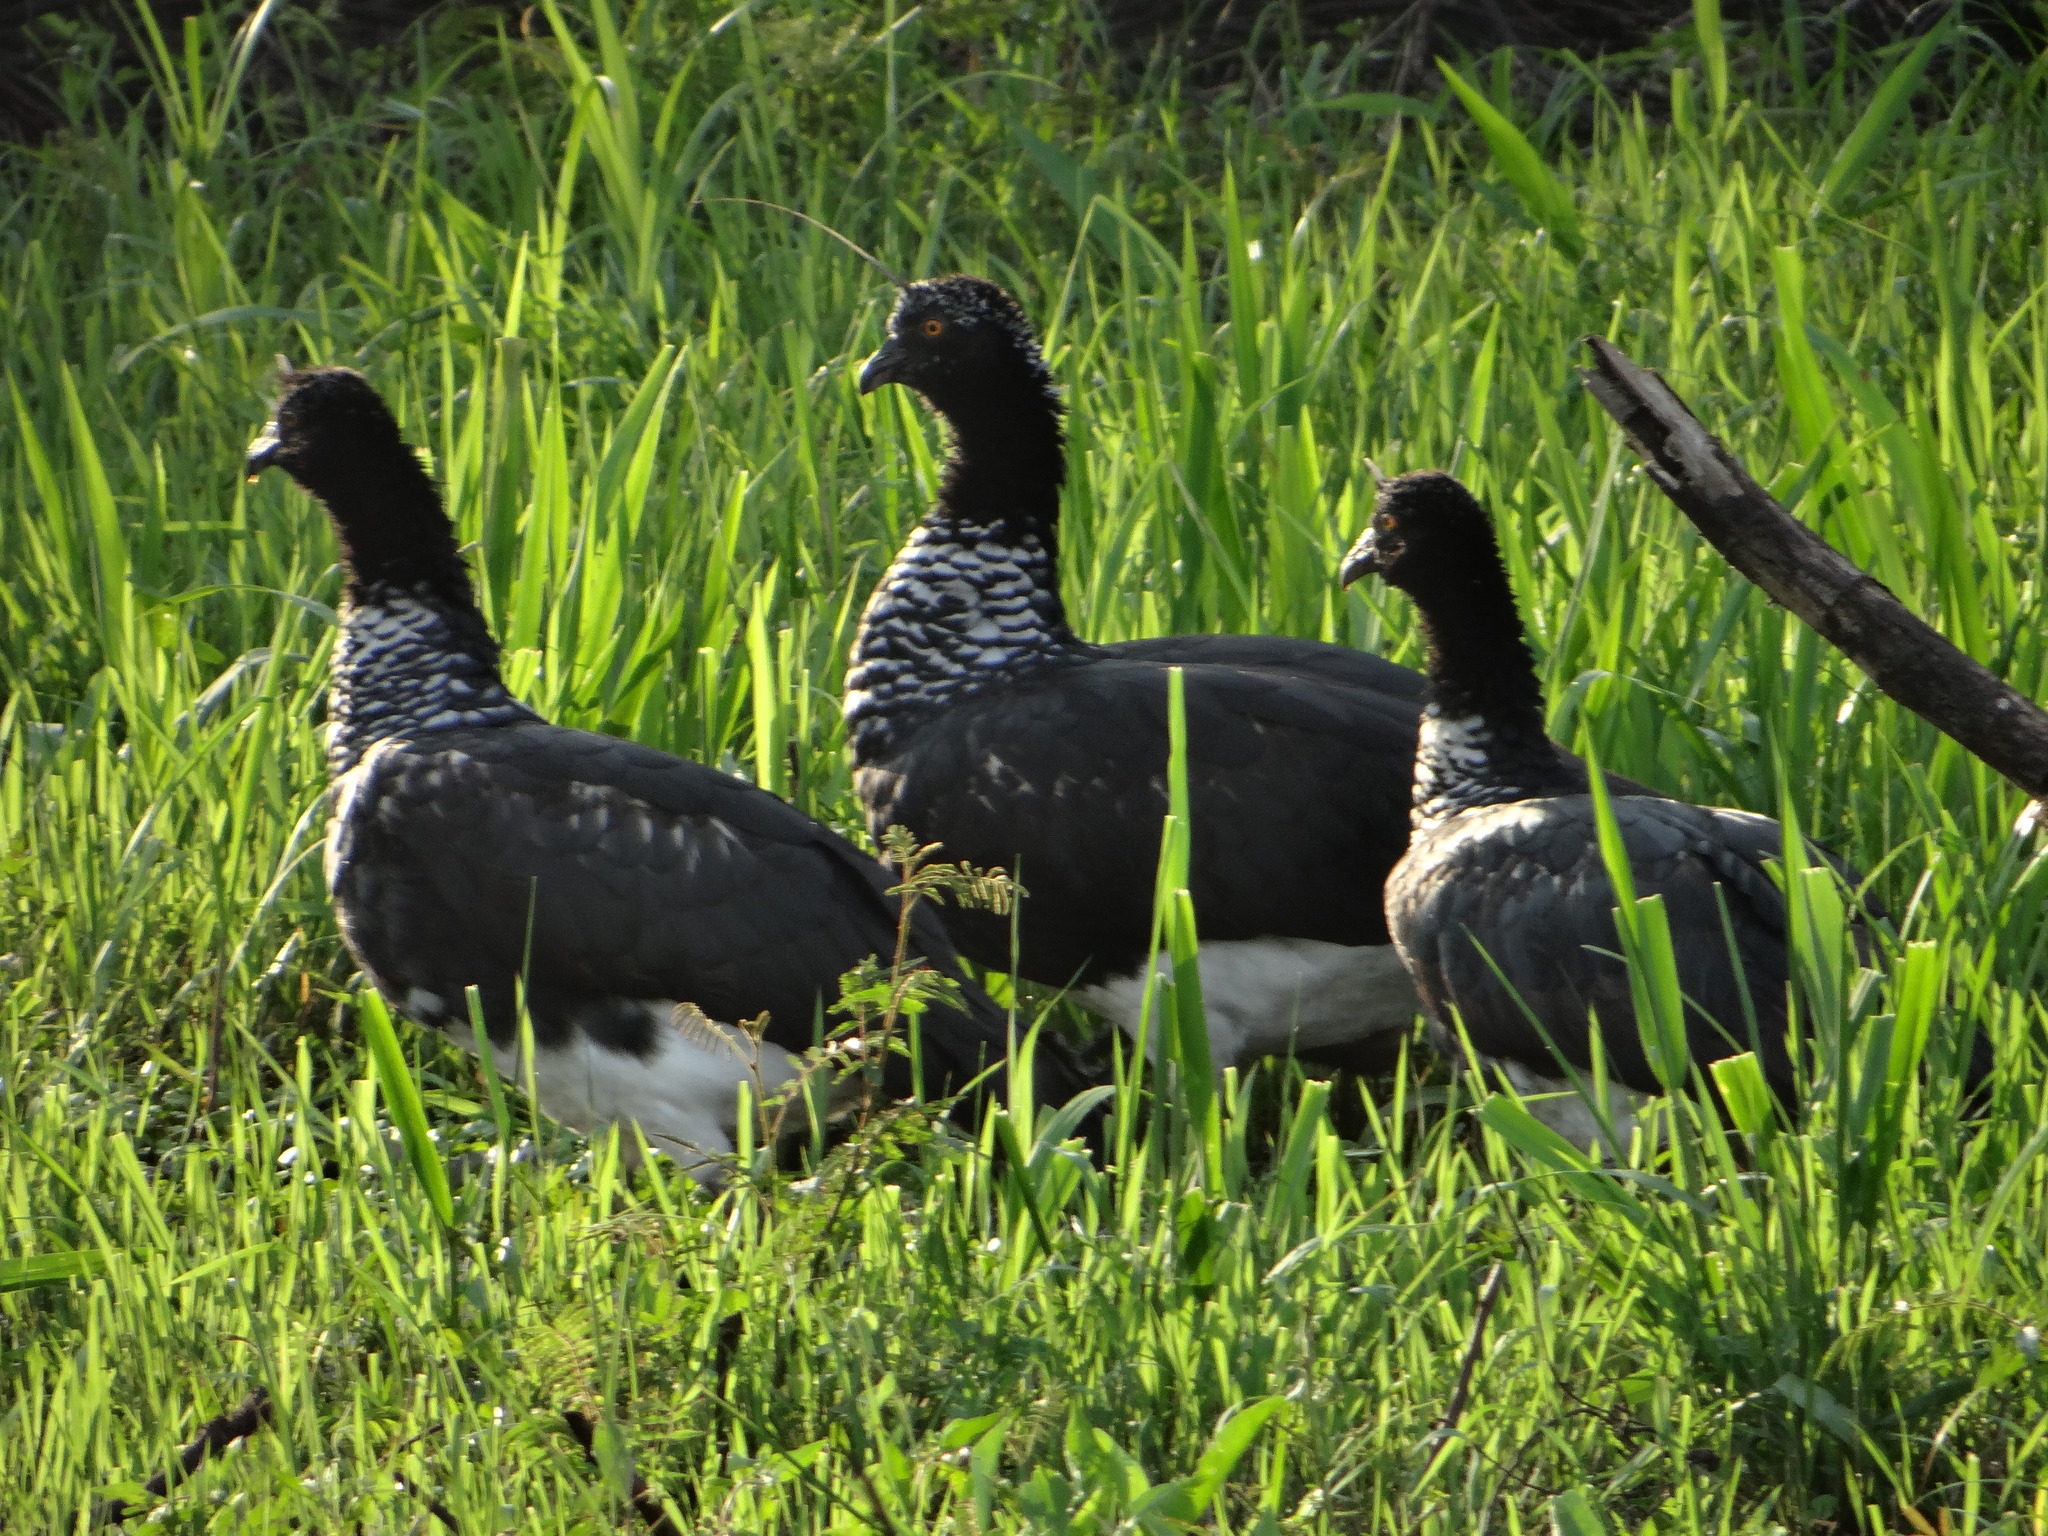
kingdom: Animalia
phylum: Chordata
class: Aves
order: Anseriformes
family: Anhimidae
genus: Anhima
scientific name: Anhima cornuta
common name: Horned screamer
